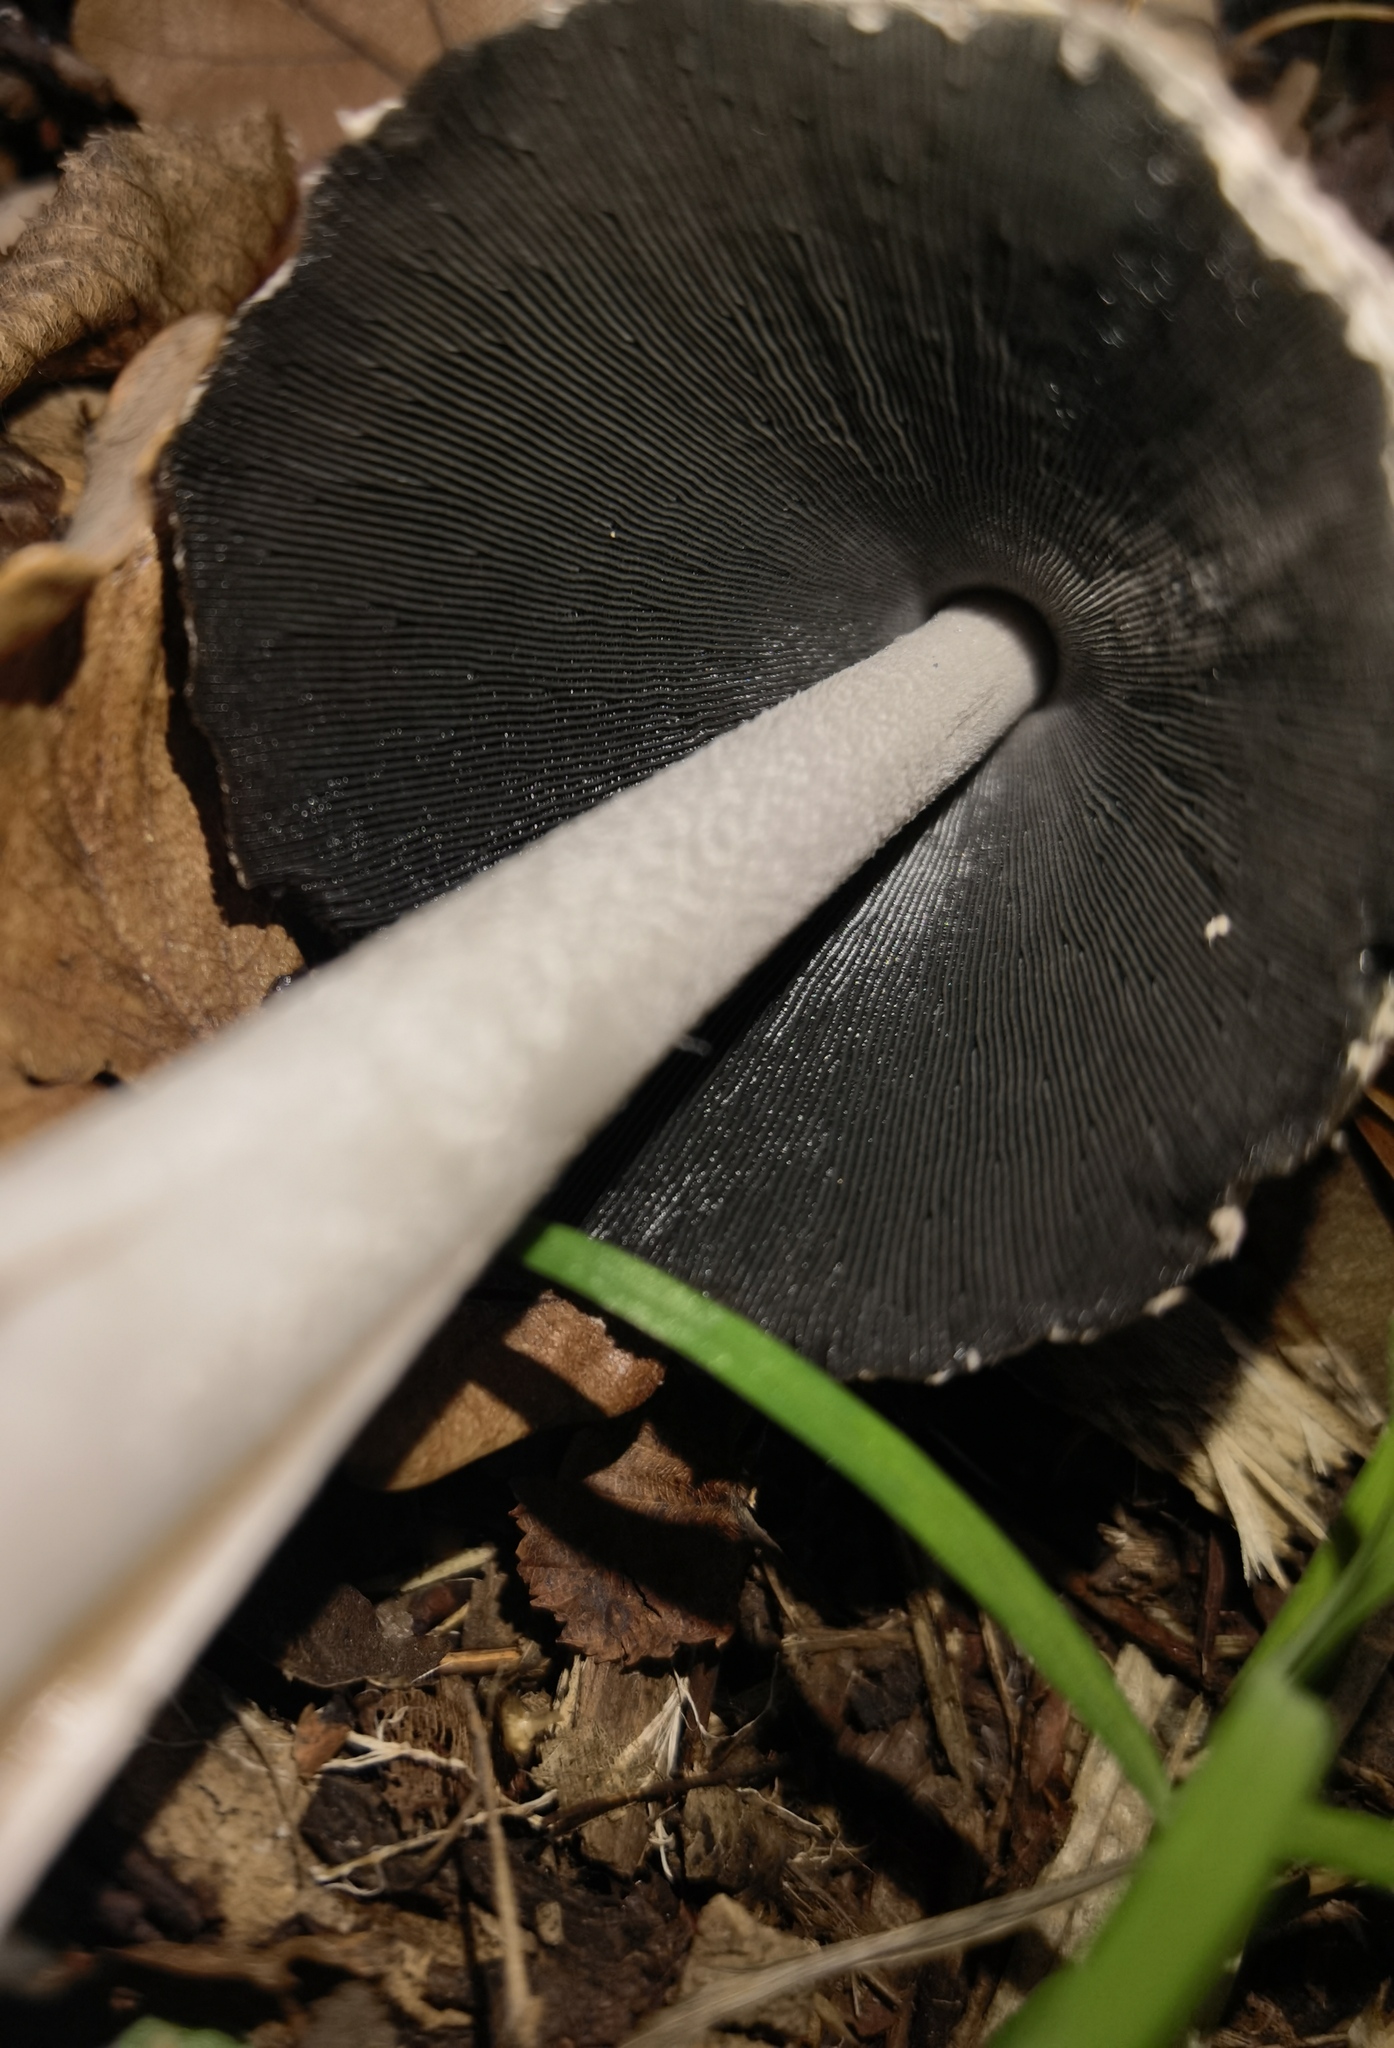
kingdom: Fungi
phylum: Basidiomycota
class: Agaricomycetes
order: Agaricales
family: Psathyrellaceae
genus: Coprinopsis
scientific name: Coprinopsis picacea
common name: Magpie inkcap
